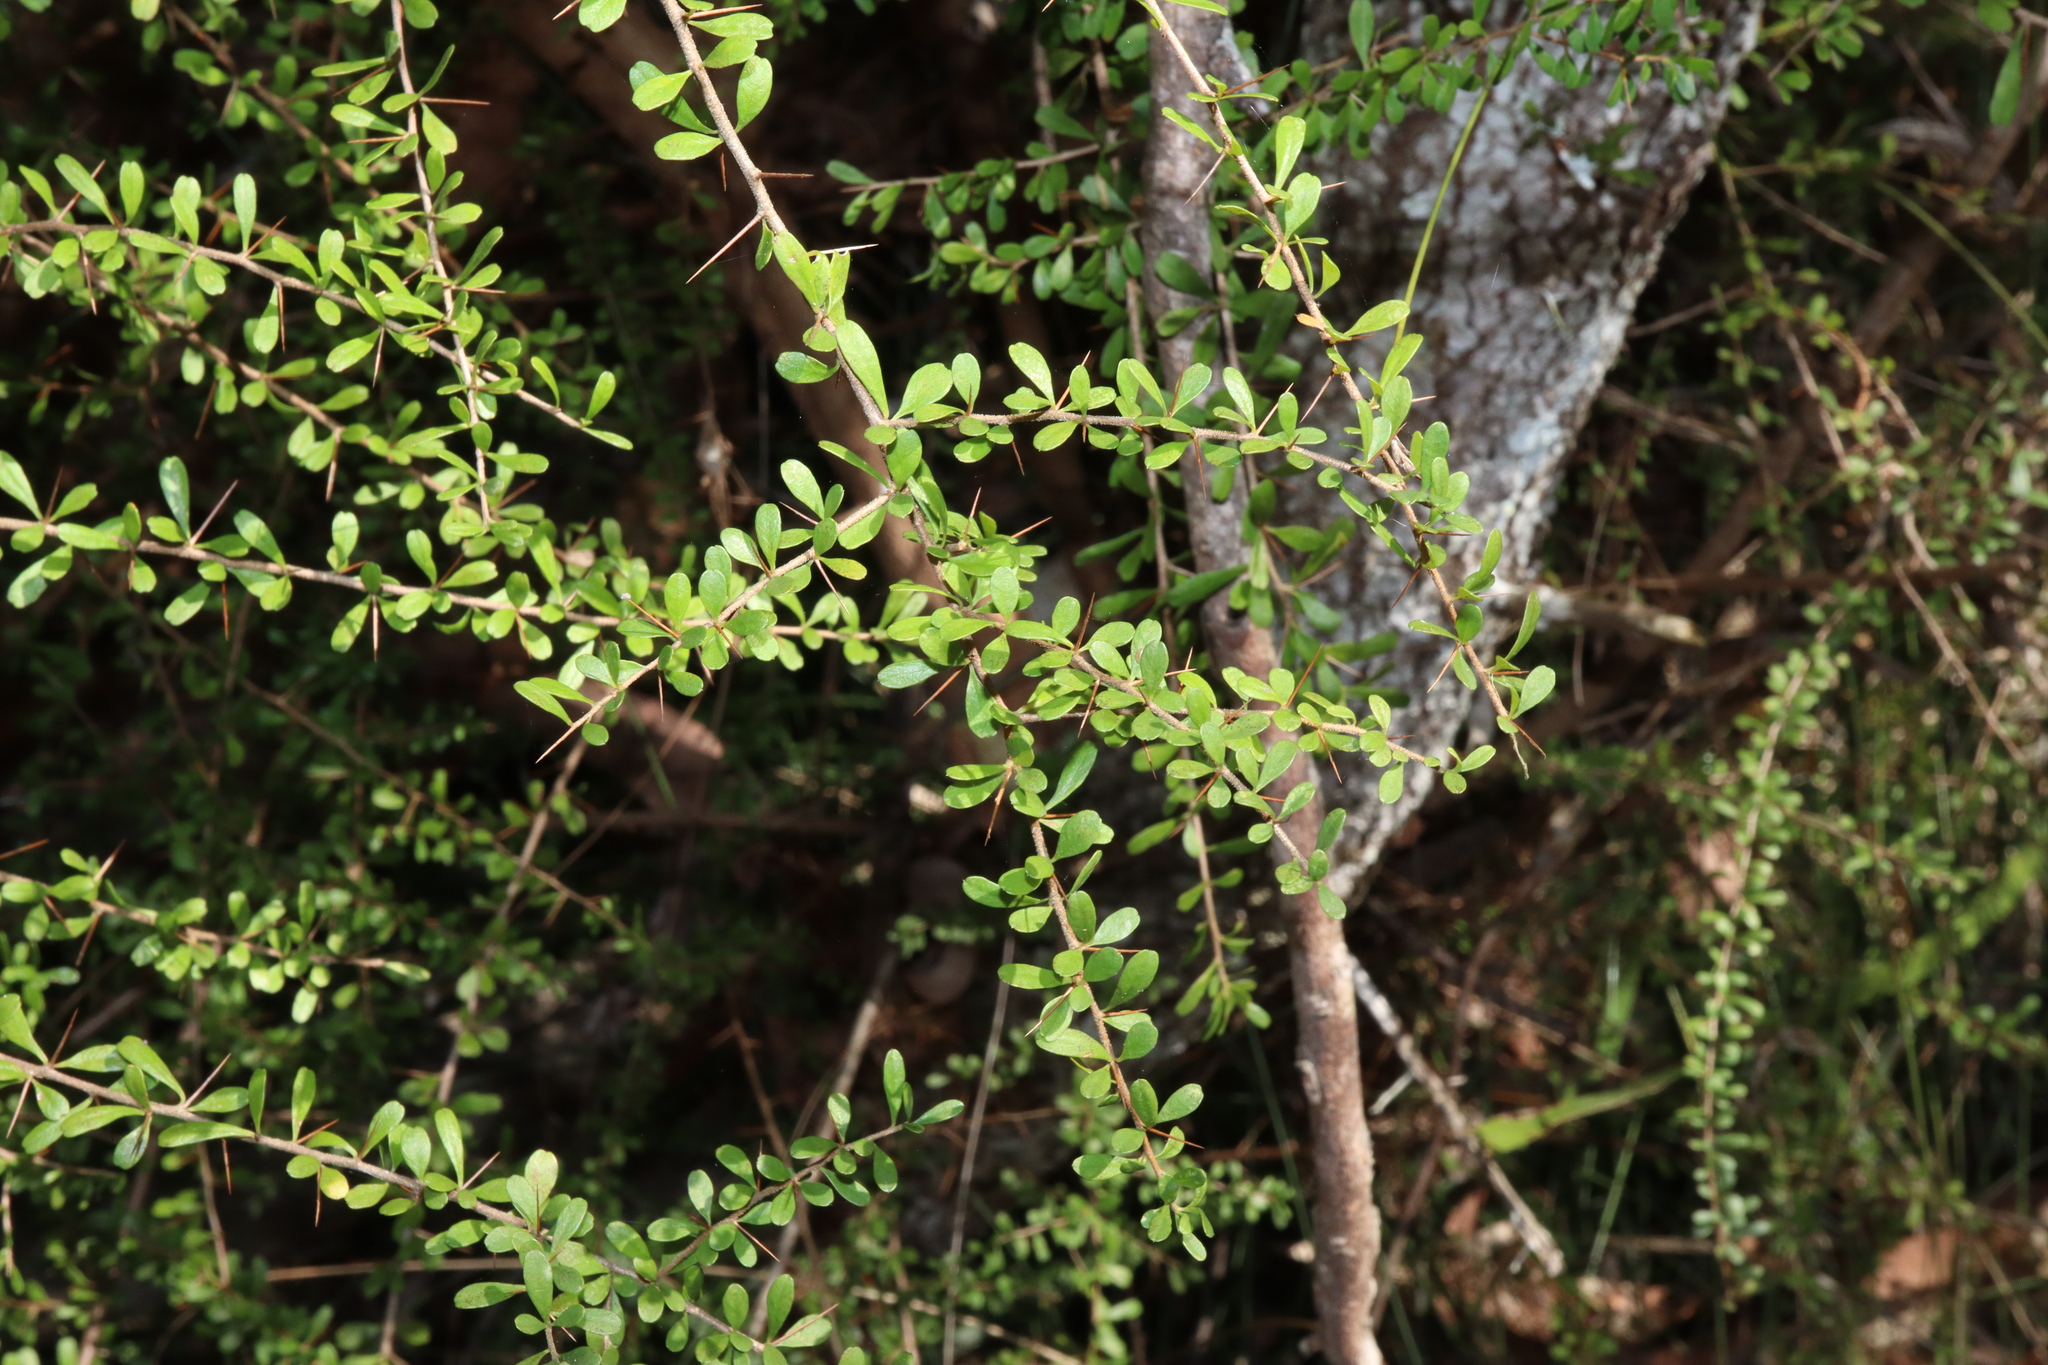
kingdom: Plantae
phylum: Tracheophyta
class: Magnoliopsida
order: Apiales
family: Pittosporaceae
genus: Bursaria
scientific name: Bursaria spinosa
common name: Australian blackthorn
